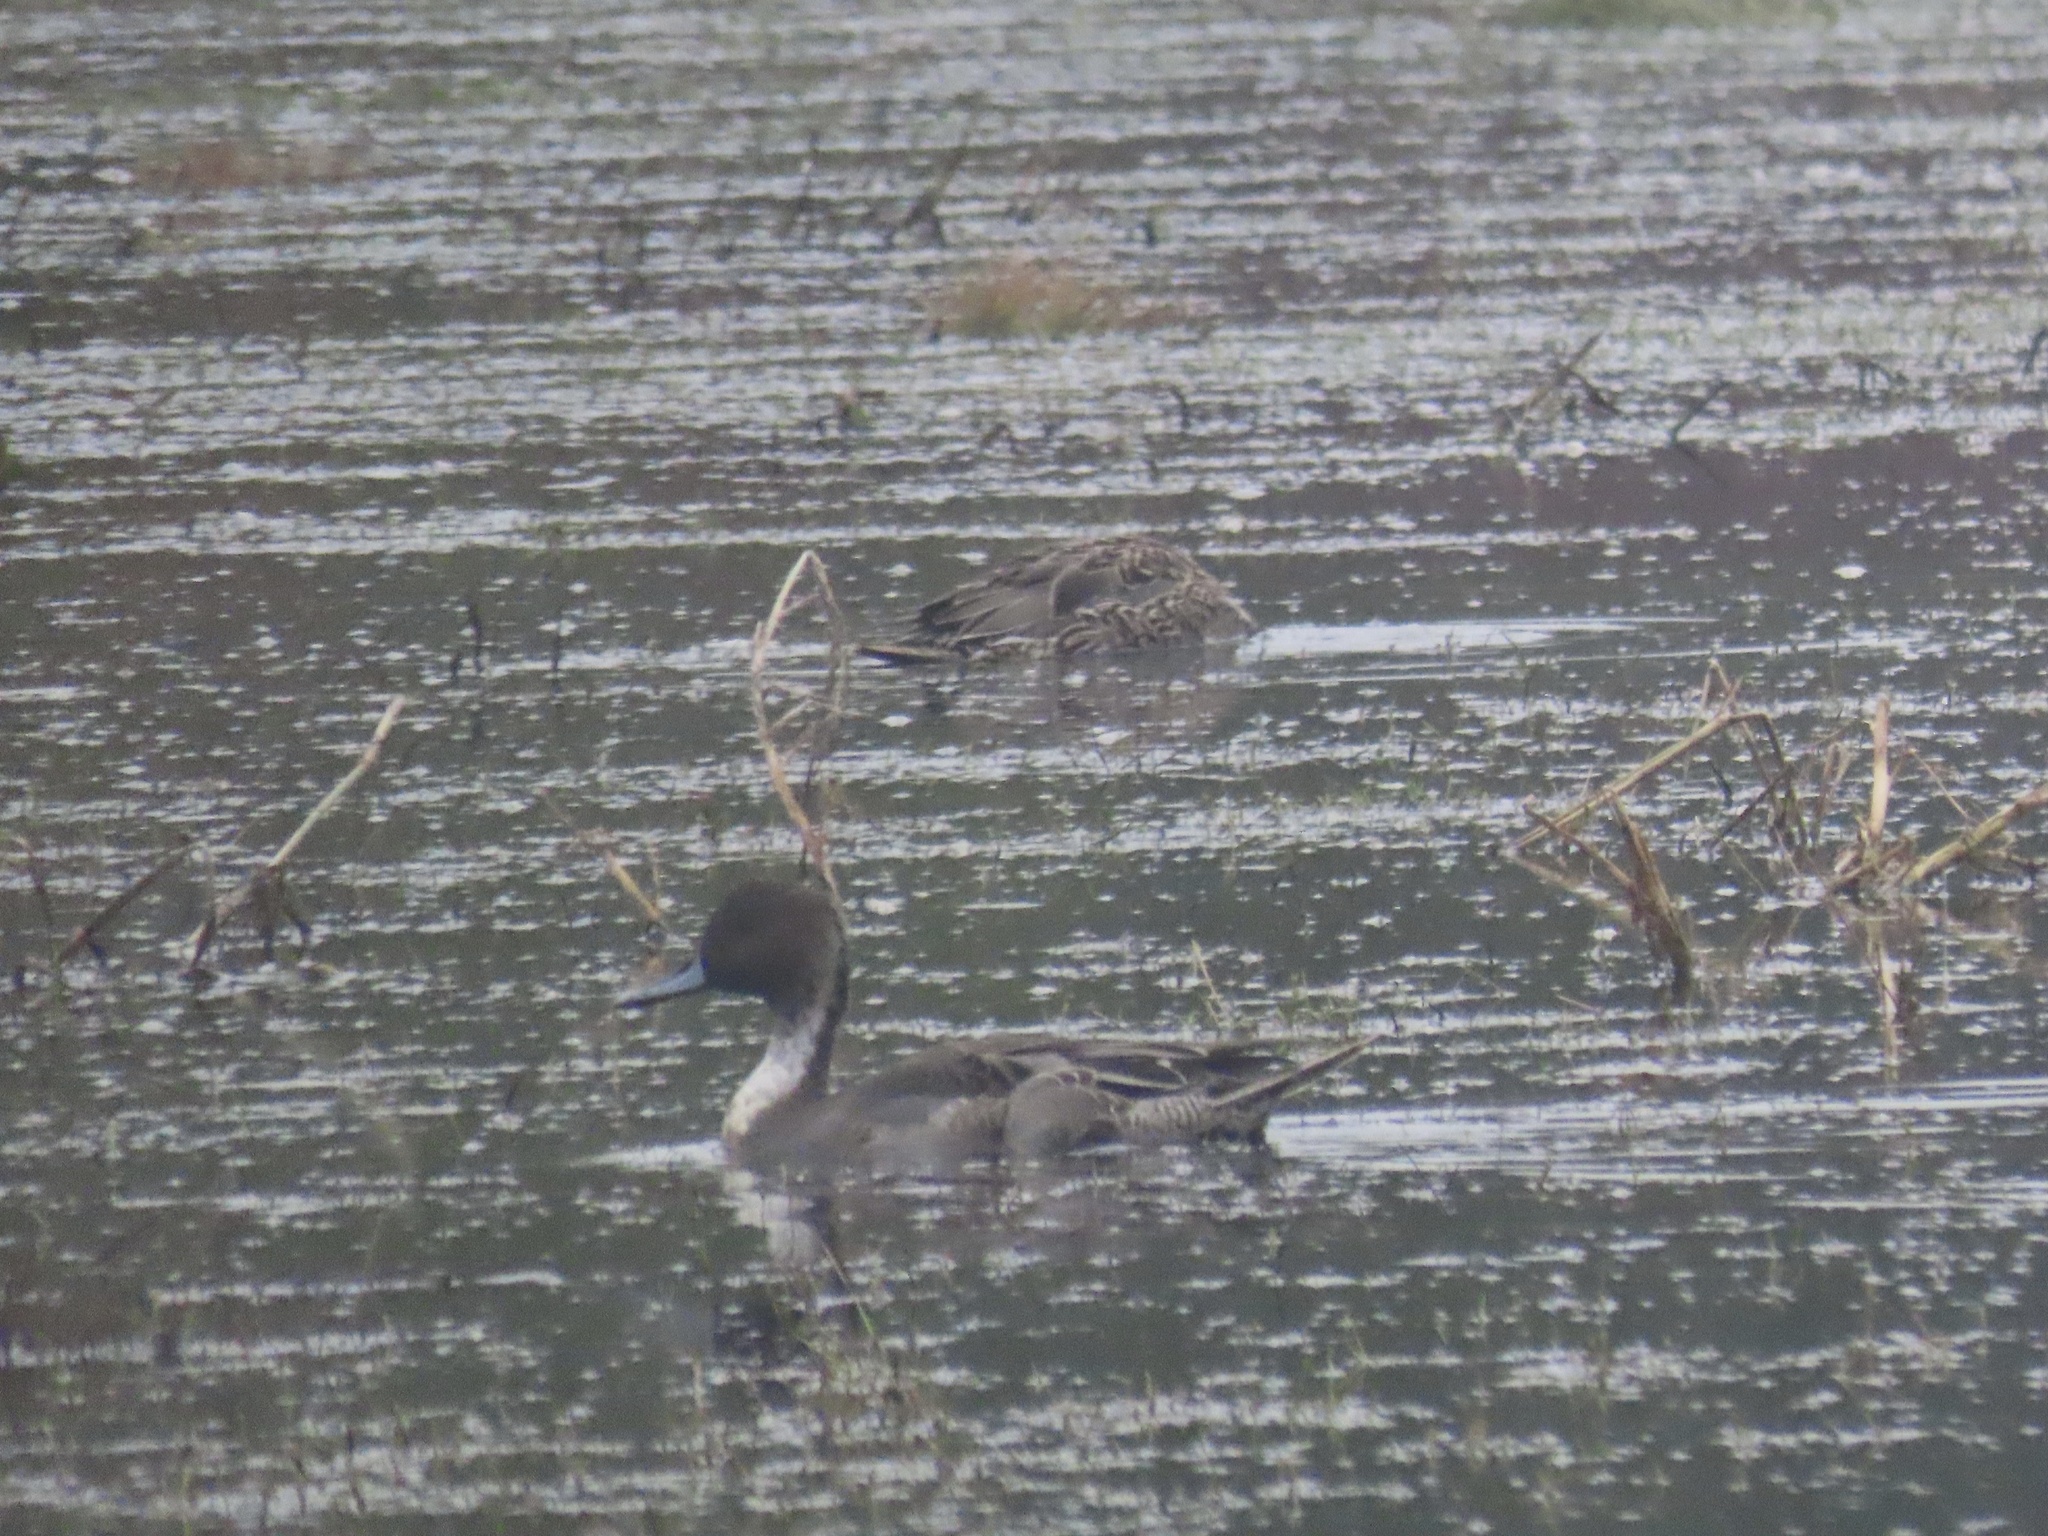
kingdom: Animalia
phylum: Chordata
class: Aves
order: Anseriformes
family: Anatidae
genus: Anas
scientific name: Anas acuta
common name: Northern pintail
